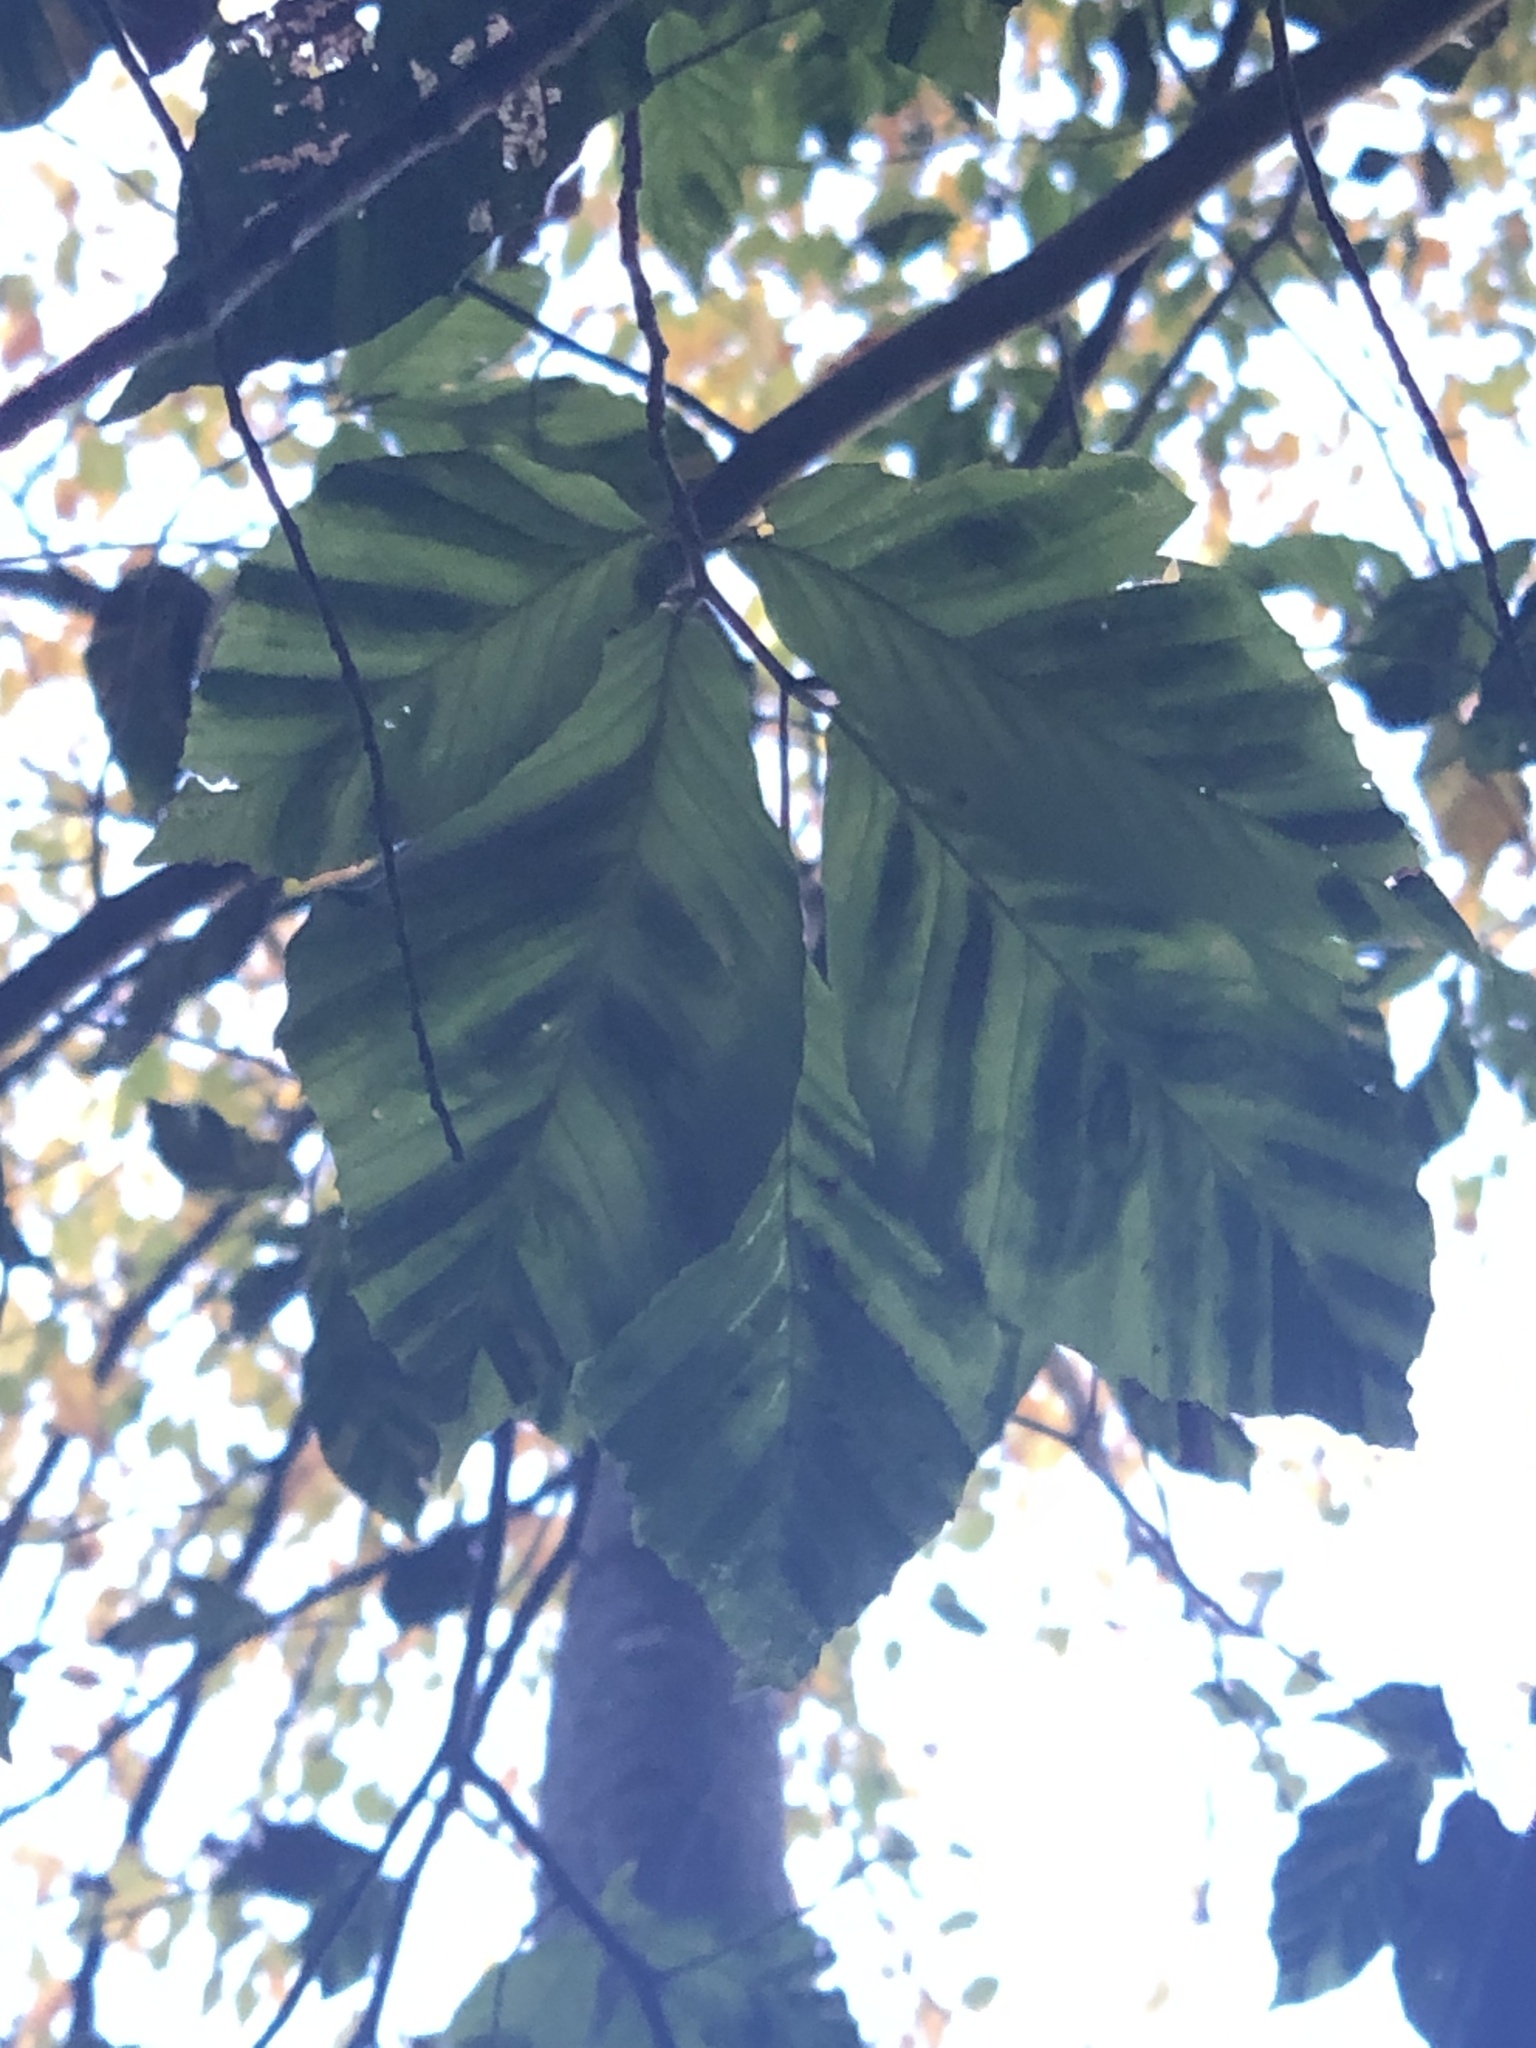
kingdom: Animalia
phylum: Nematoda
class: Chromadorea
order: Rhabditida
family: Anguinidae
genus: Litylenchus
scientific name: Litylenchus crenatae
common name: Beech leaf disease
